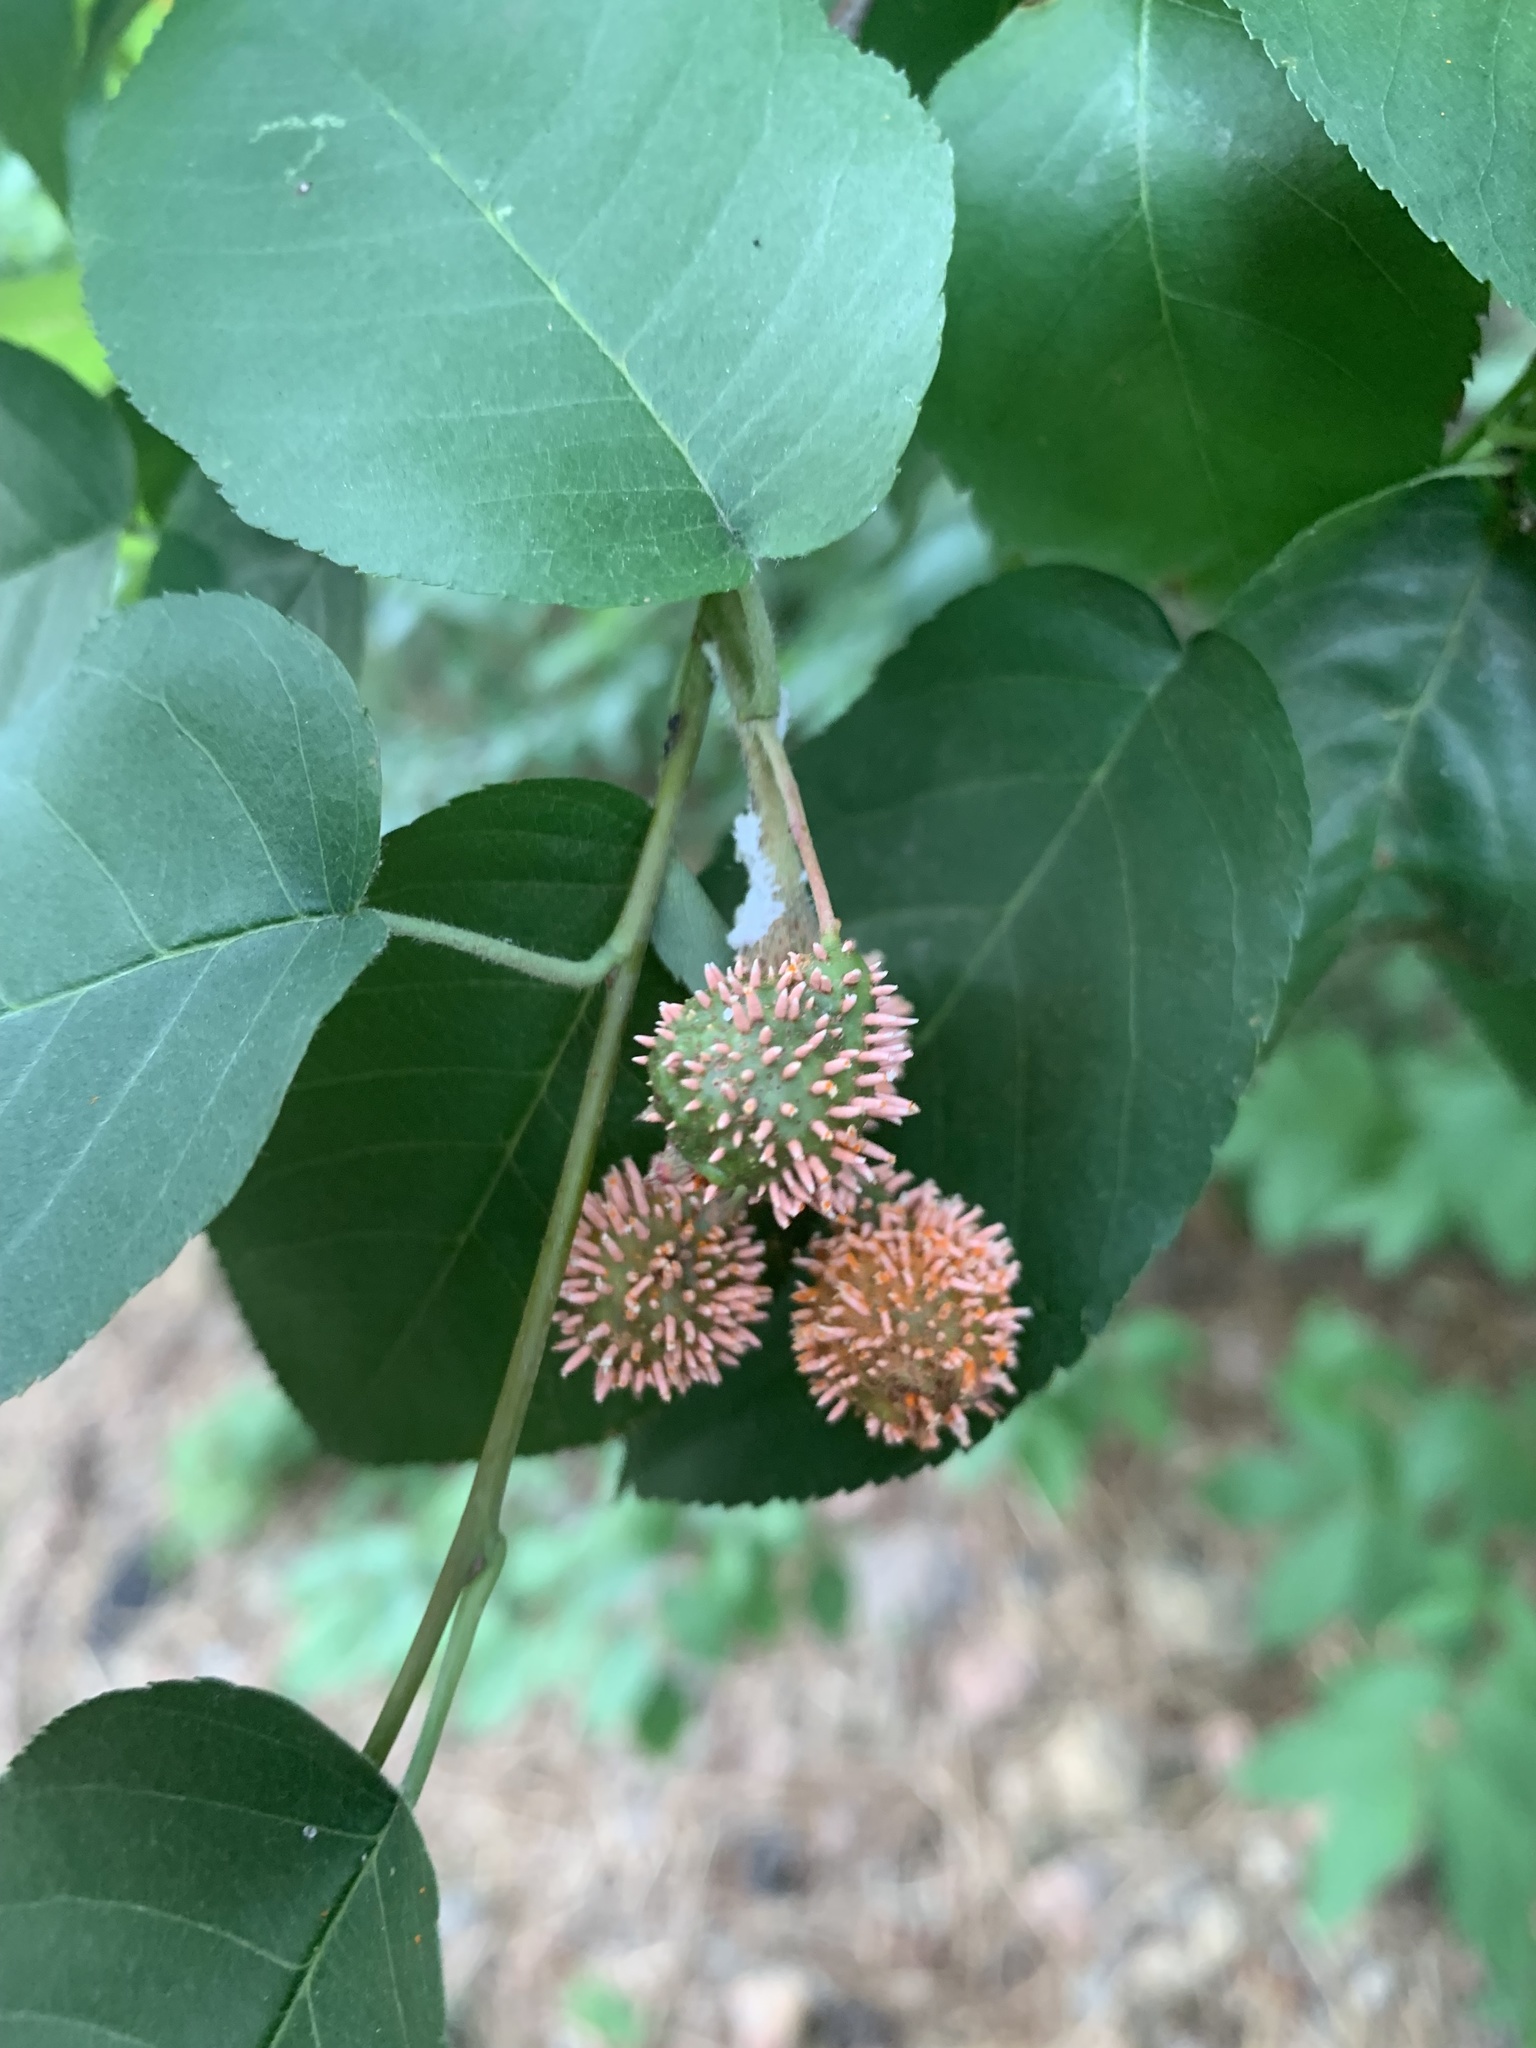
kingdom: Fungi
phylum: Basidiomycota
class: Pucciniomycetes
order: Pucciniales
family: Gymnosporangiaceae
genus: Gymnosporangium
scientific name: Gymnosporangium clavipes
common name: Quince rust
